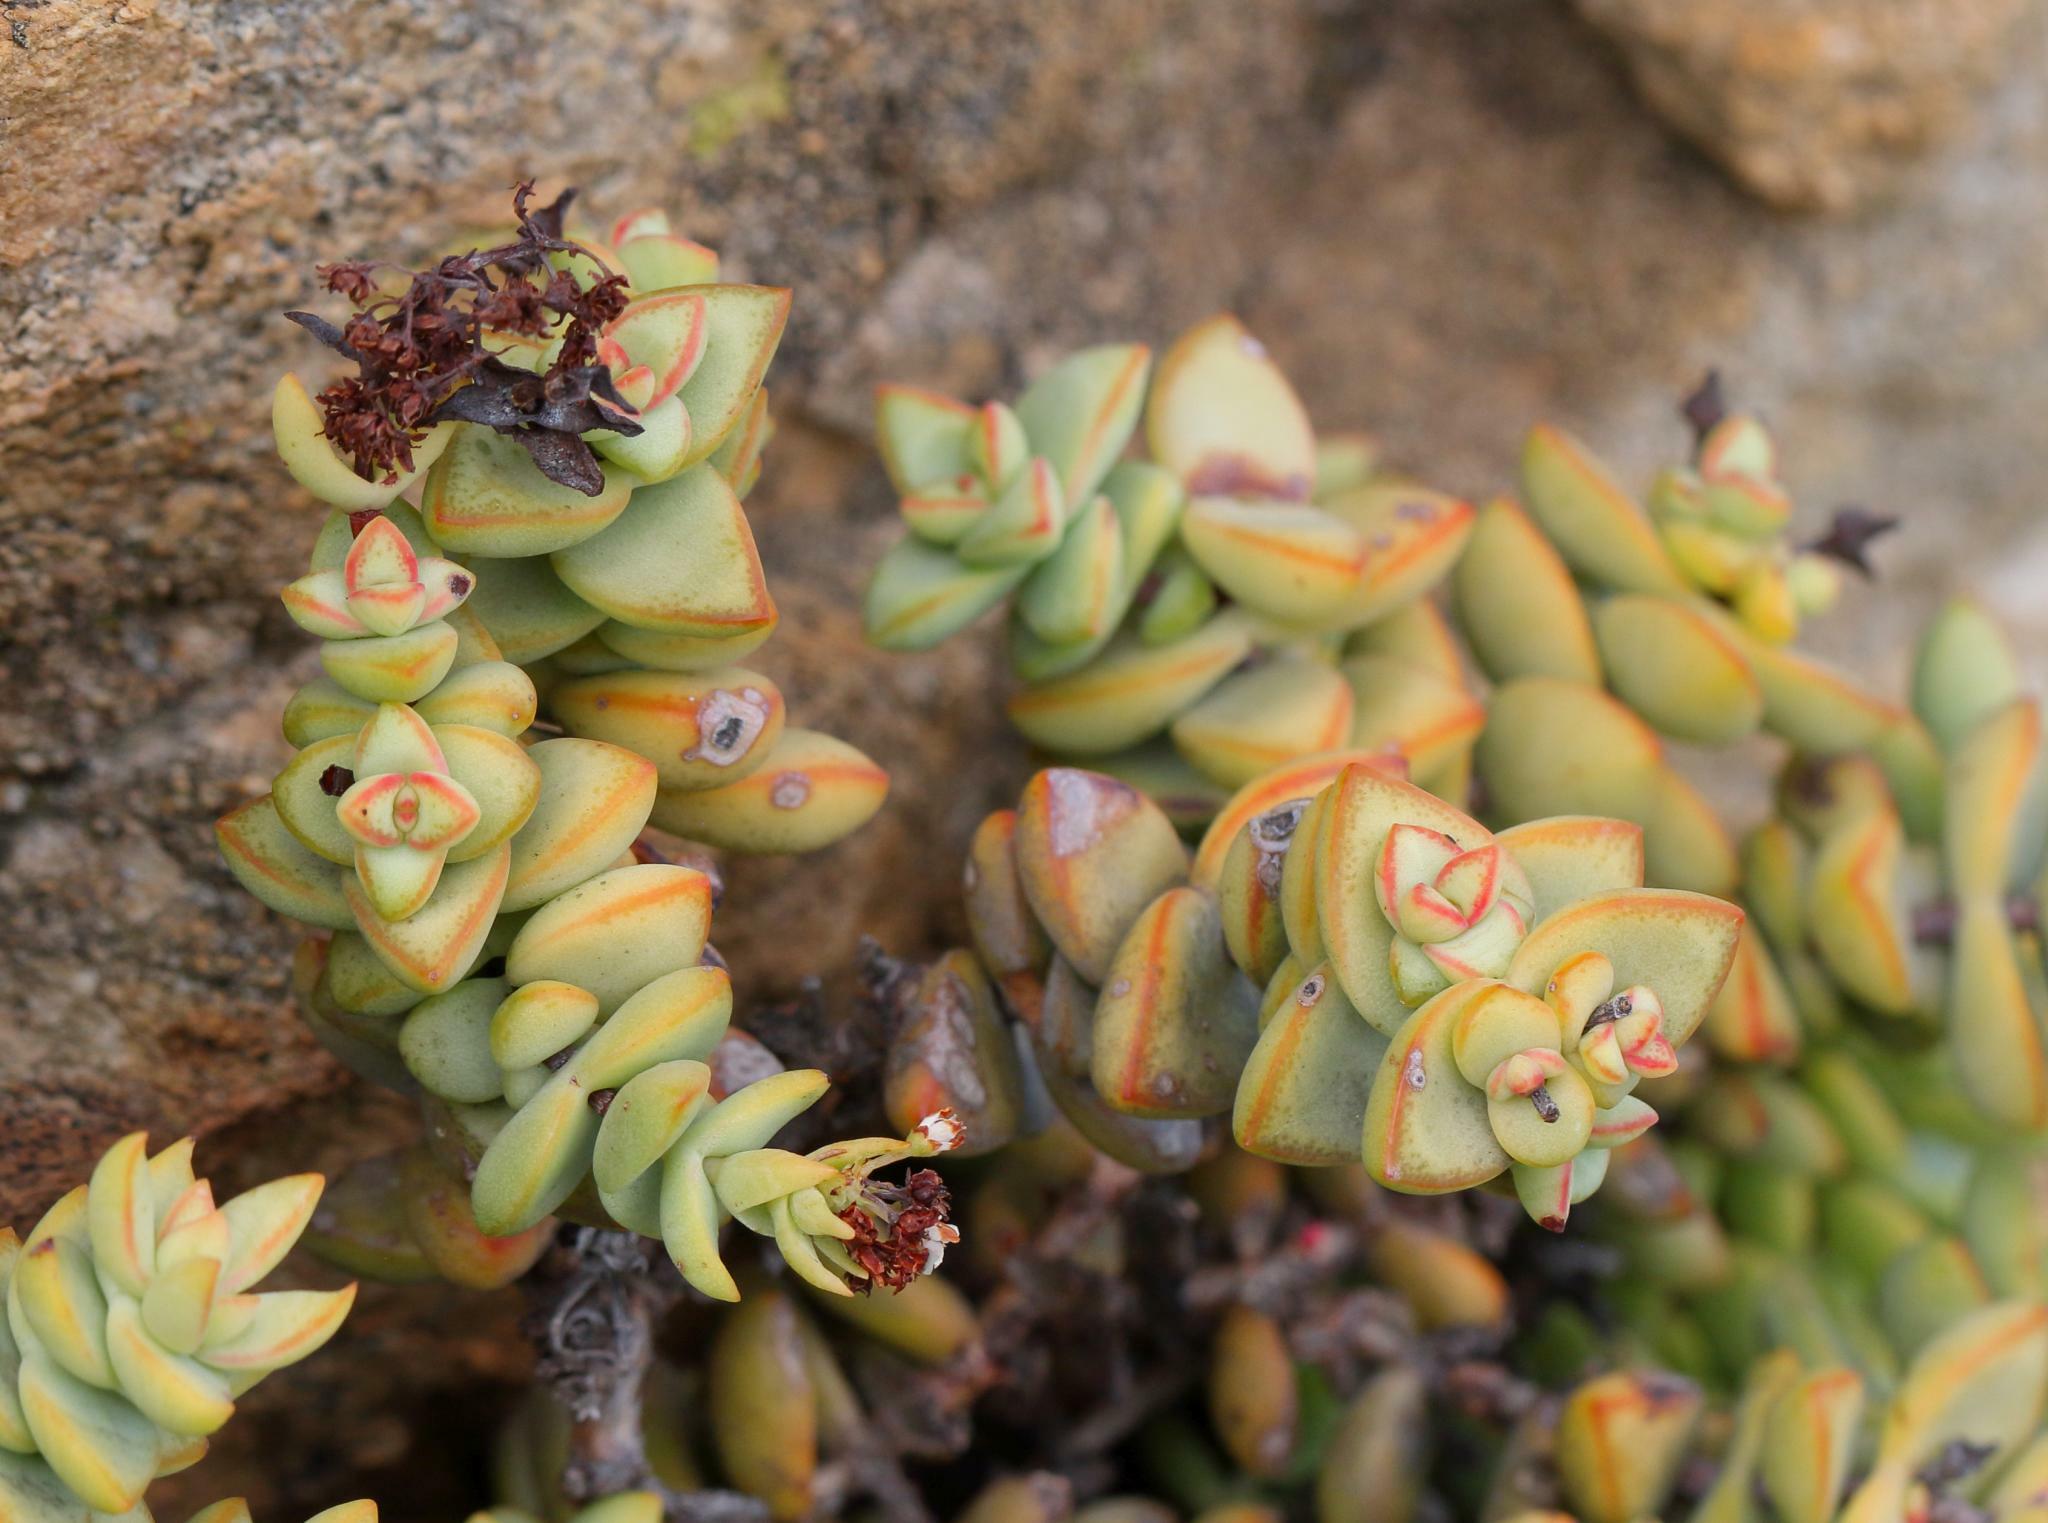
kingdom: Plantae
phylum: Tracheophyta
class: Magnoliopsida
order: Saxifragales
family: Crassulaceae
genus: Crassula
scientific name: Crassula rupestris
